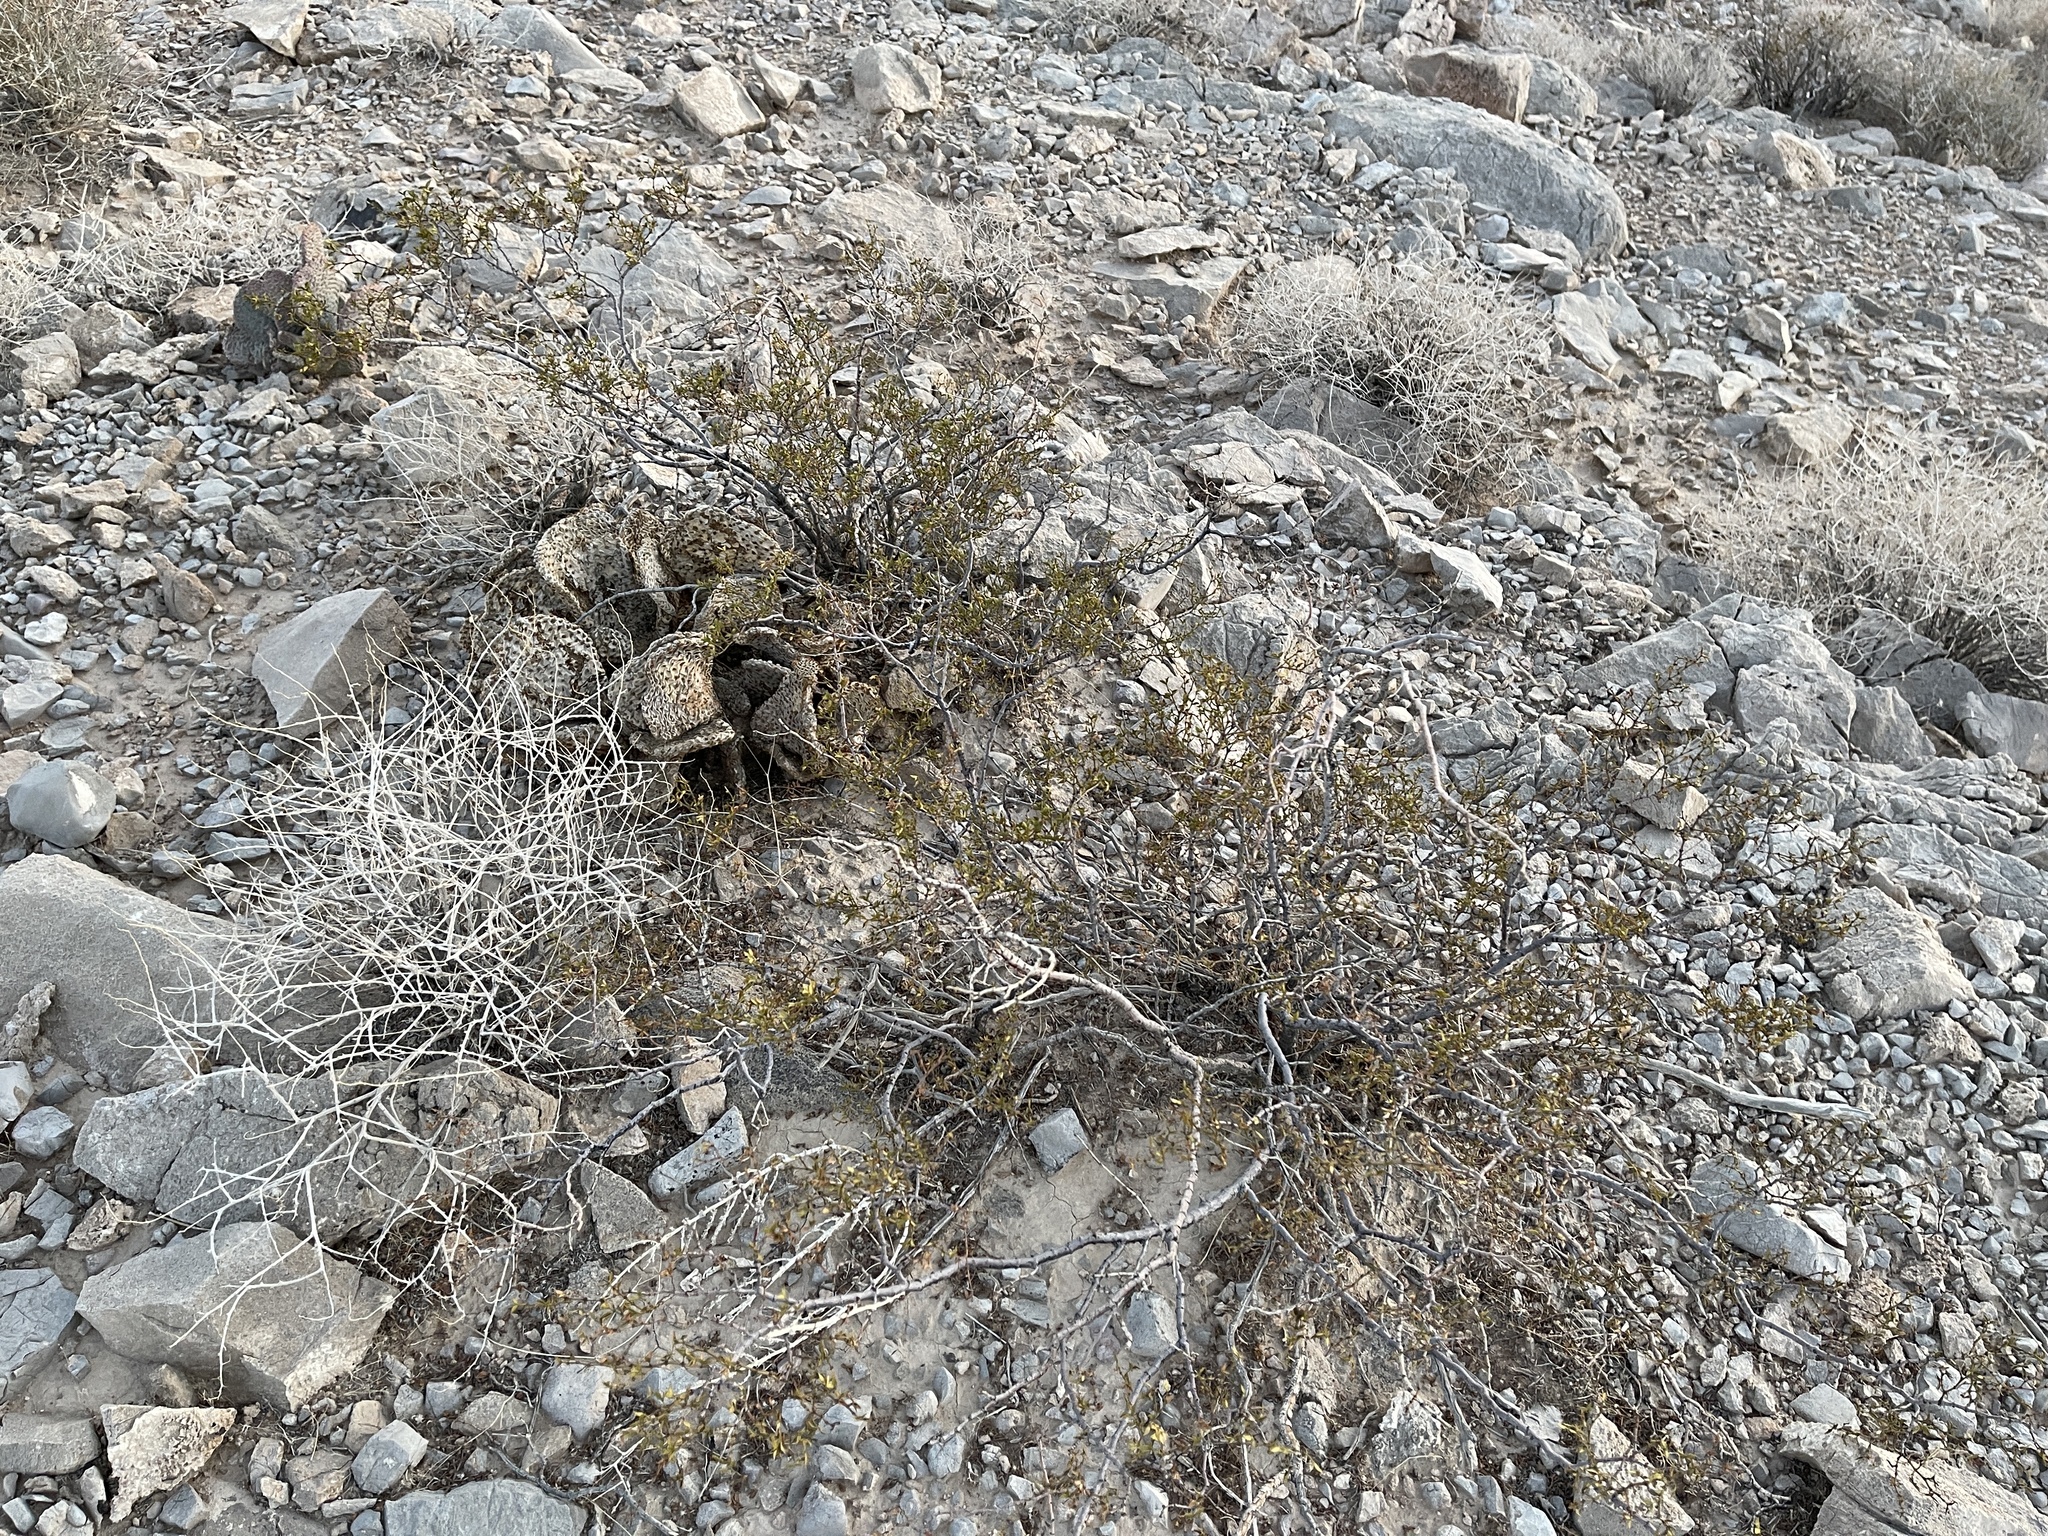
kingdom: Plantae
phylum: Tracheophyta
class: Magnoliopsida
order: Zygophyllales
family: Zygophyllaceae
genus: Larrea
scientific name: Larrea tridentata
